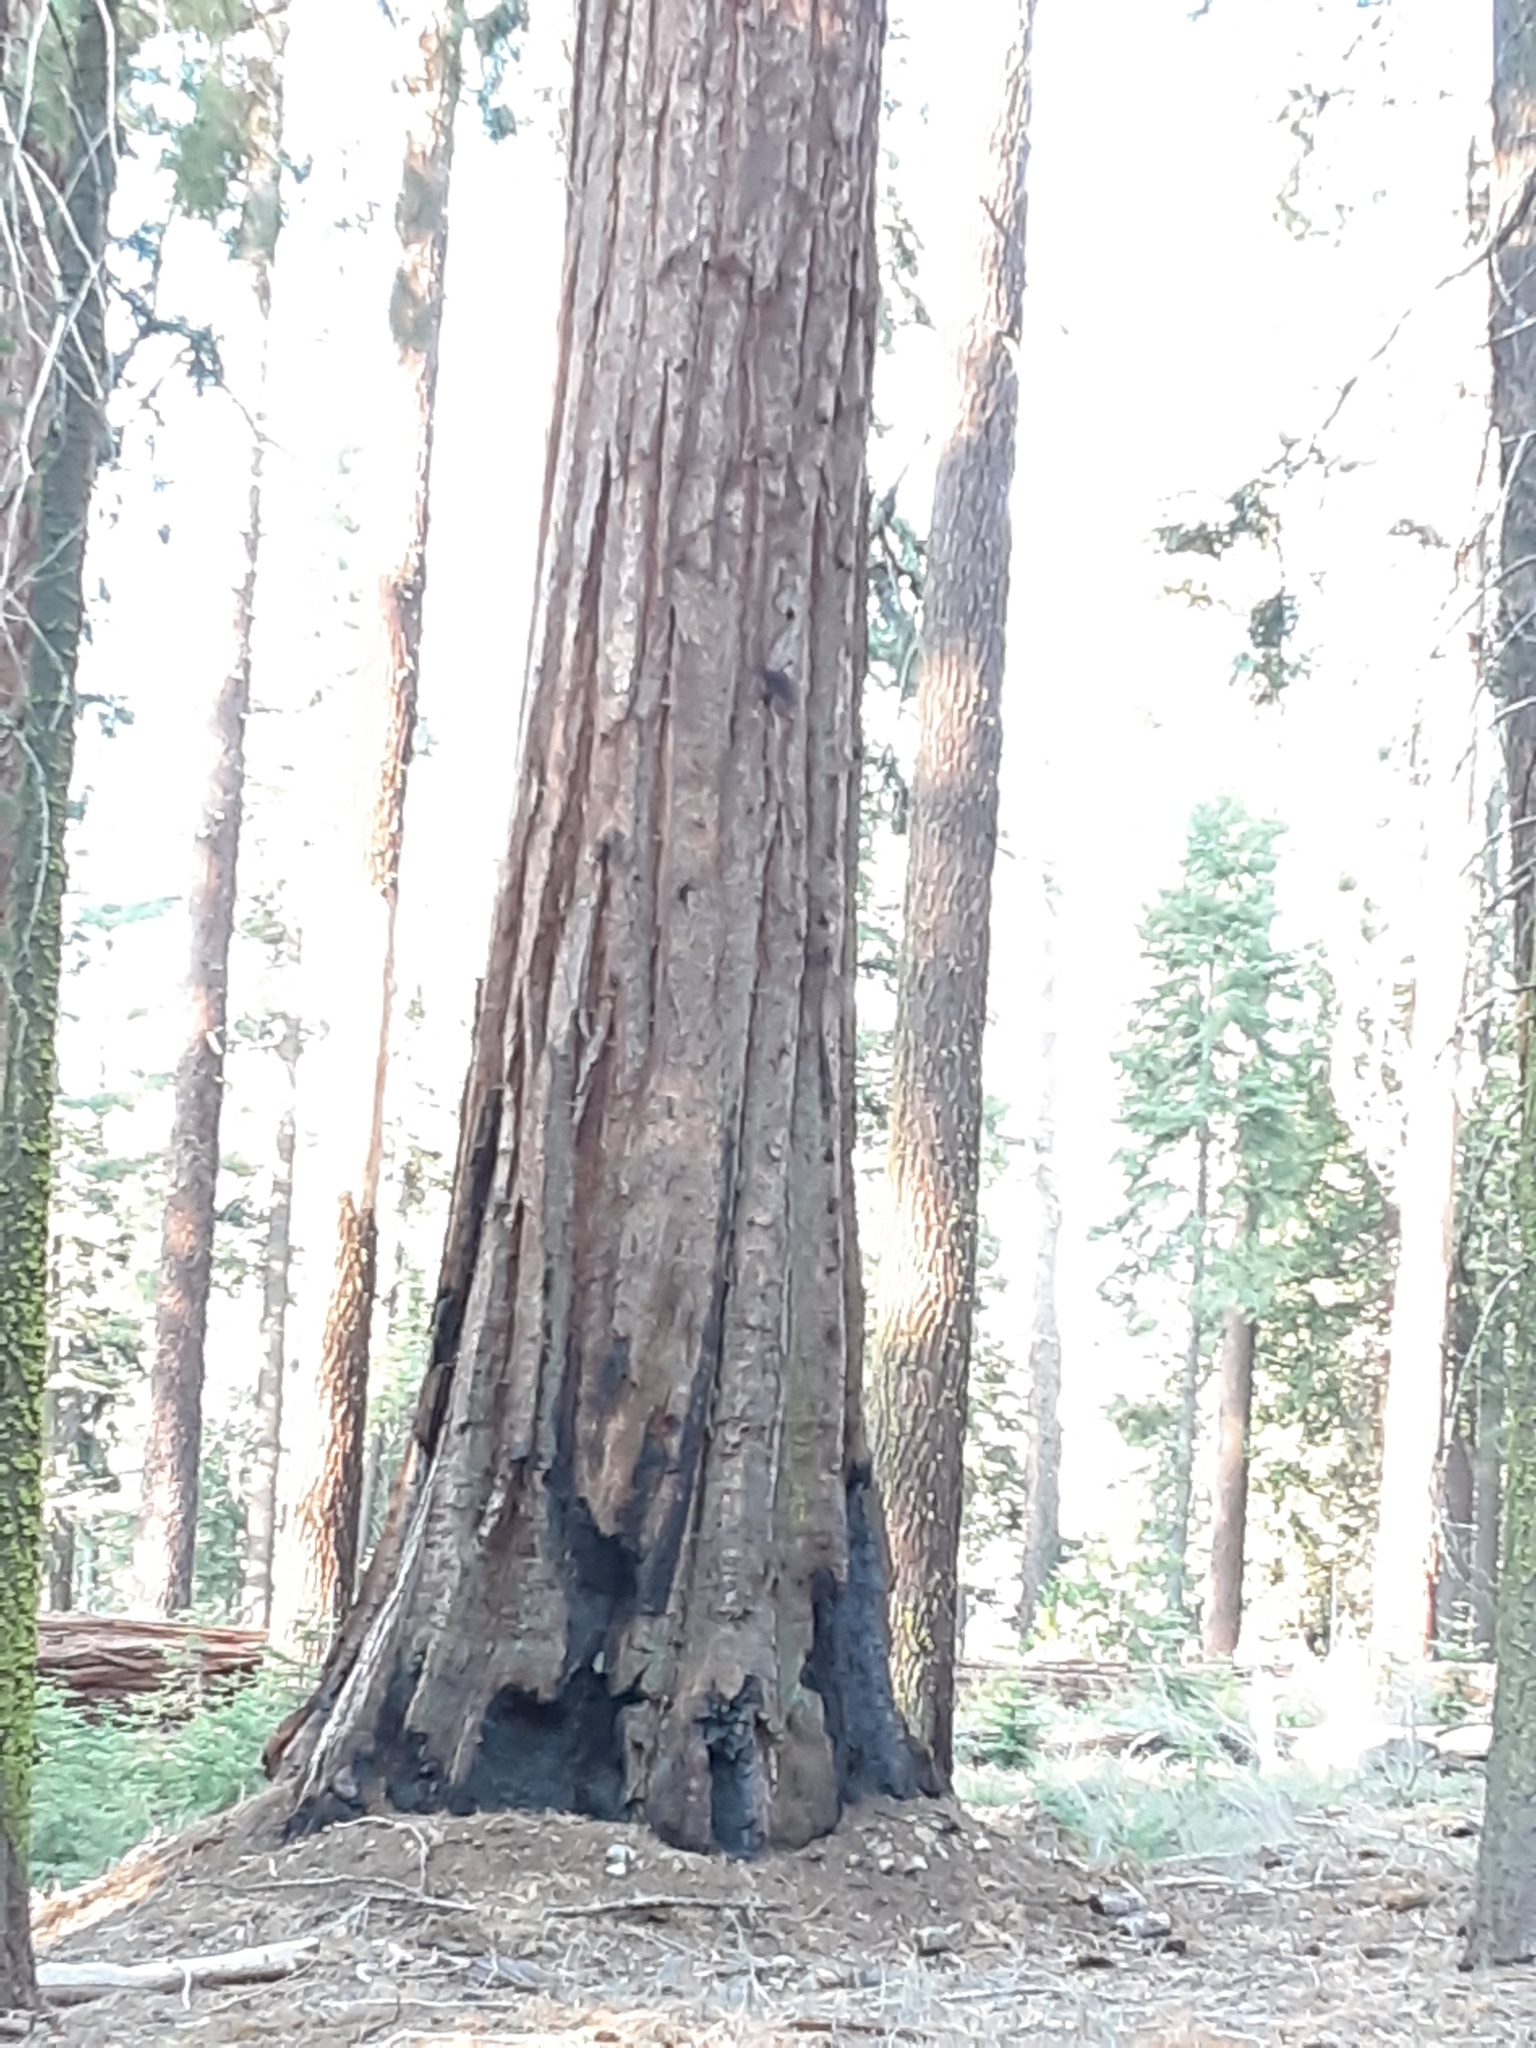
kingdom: Plantae
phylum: Tracheophyta
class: Pinopsida
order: Pinales
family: Cupressaceae
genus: Sequoiadendron
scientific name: Sequoiadendron giganteum
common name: Wellingtonia
